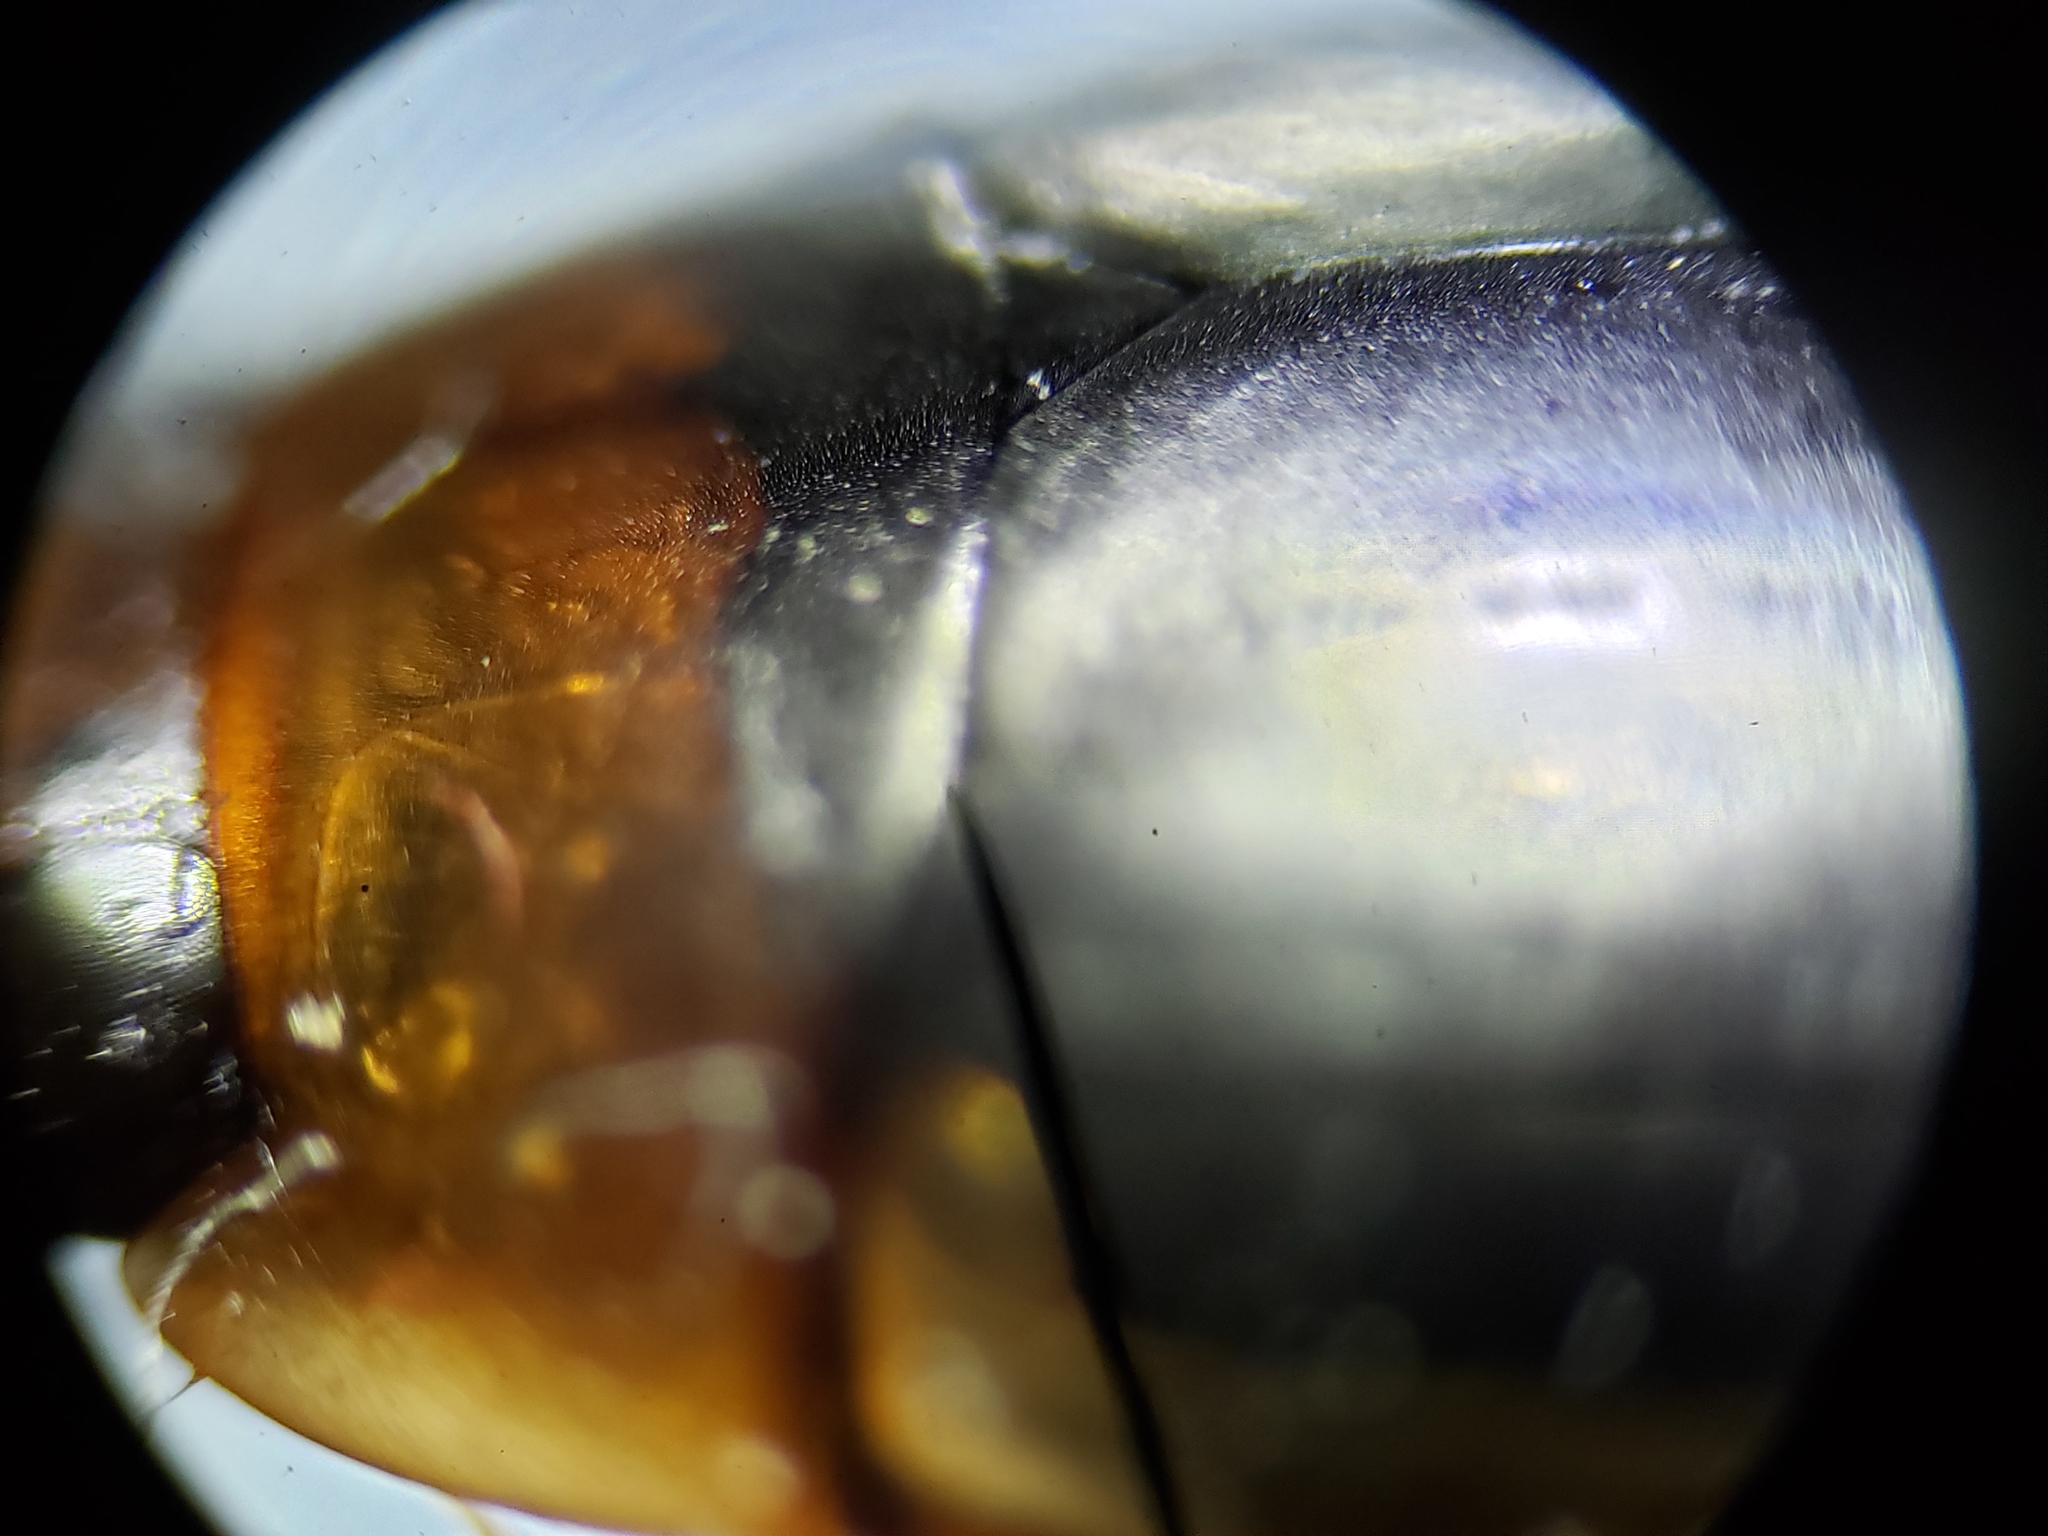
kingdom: Animalia
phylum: Arthropoda
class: Insecta
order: Coleoptera
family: Dytiscidae
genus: Hydaticus
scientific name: Hydaticus bimarginatus
